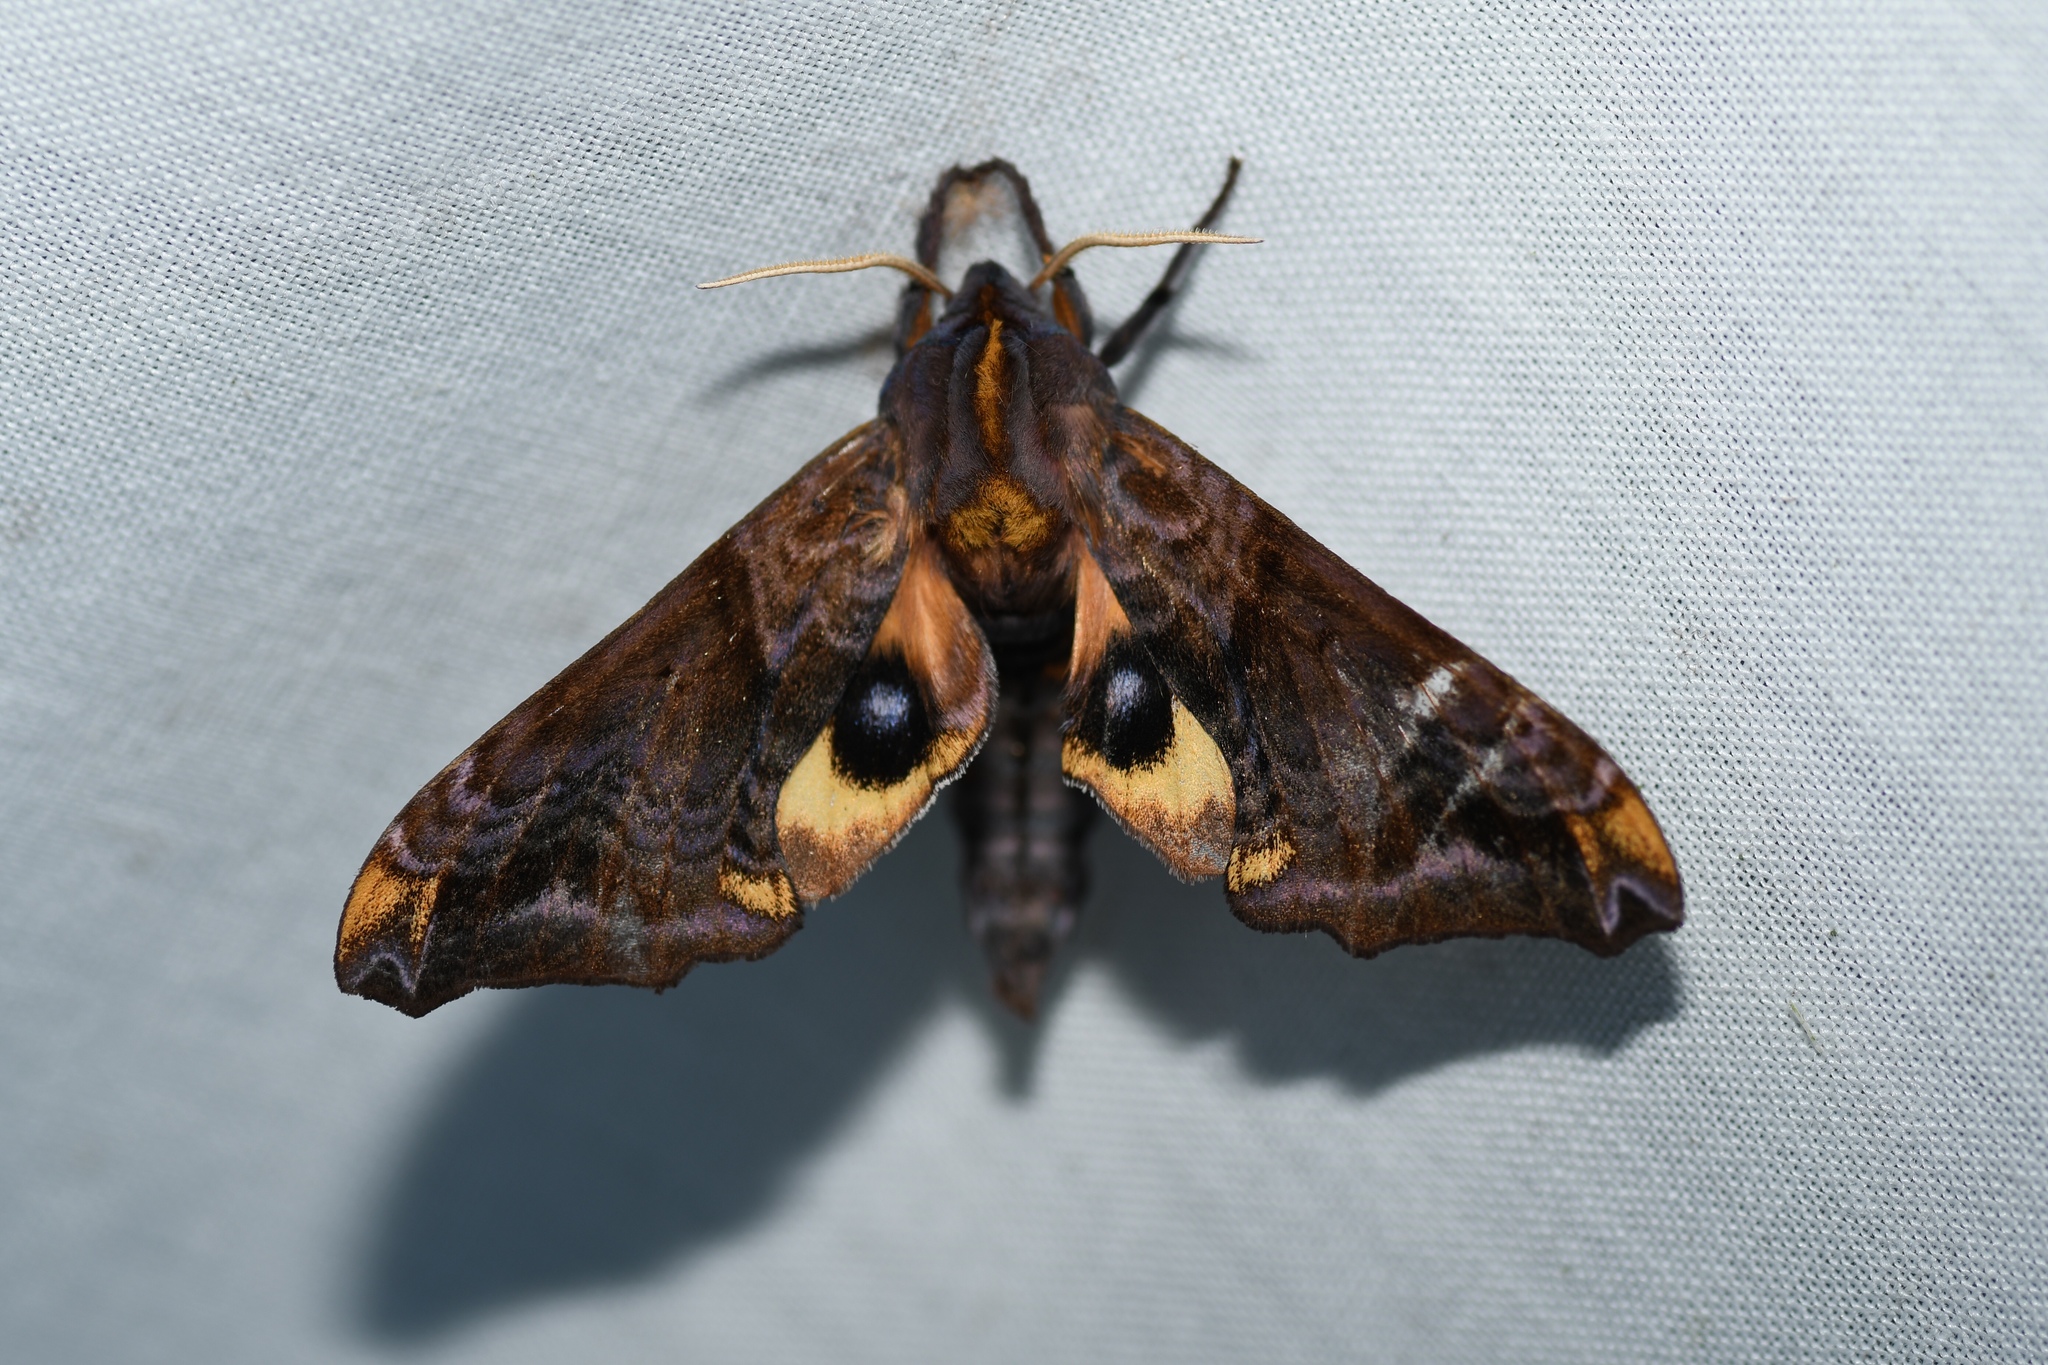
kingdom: Animalia
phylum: Arthropoda
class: Insecta
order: Lepidoptera
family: Sphingidae
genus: Paonias
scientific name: Paonias myops
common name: Small-eyed sphinx
